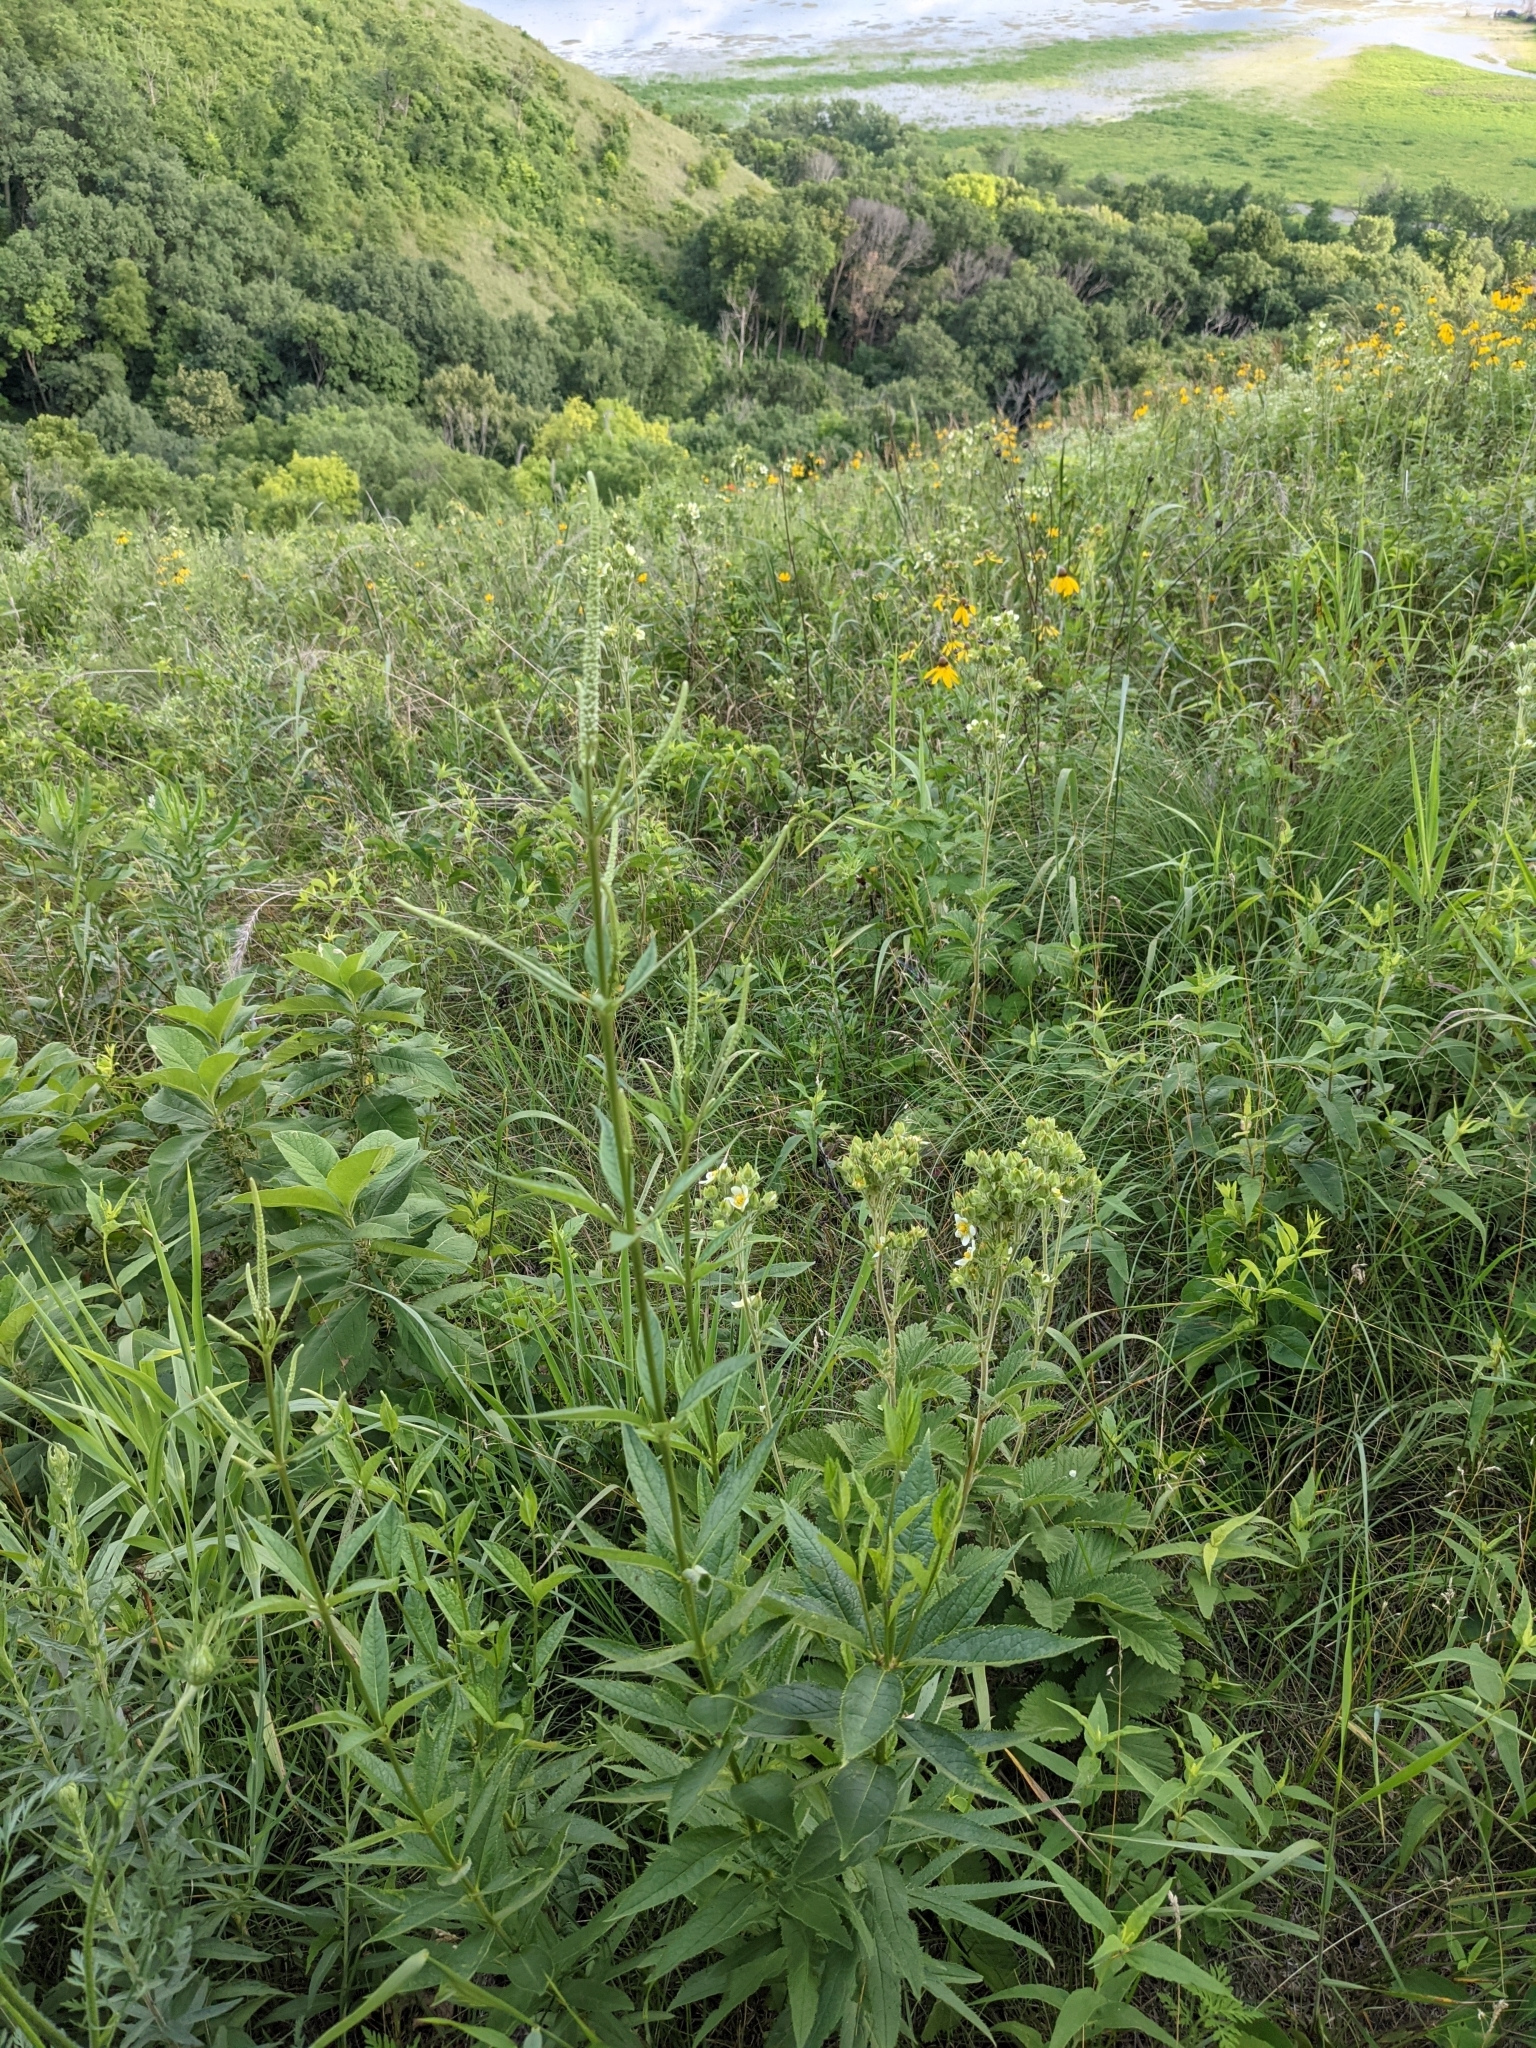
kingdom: Plantae
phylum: Tracheophyta
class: Magnoliopsida
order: Lamiales
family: Plantaginaceae
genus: Veronicastrum
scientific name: Veronicastrum virginicum
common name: Blackroot
